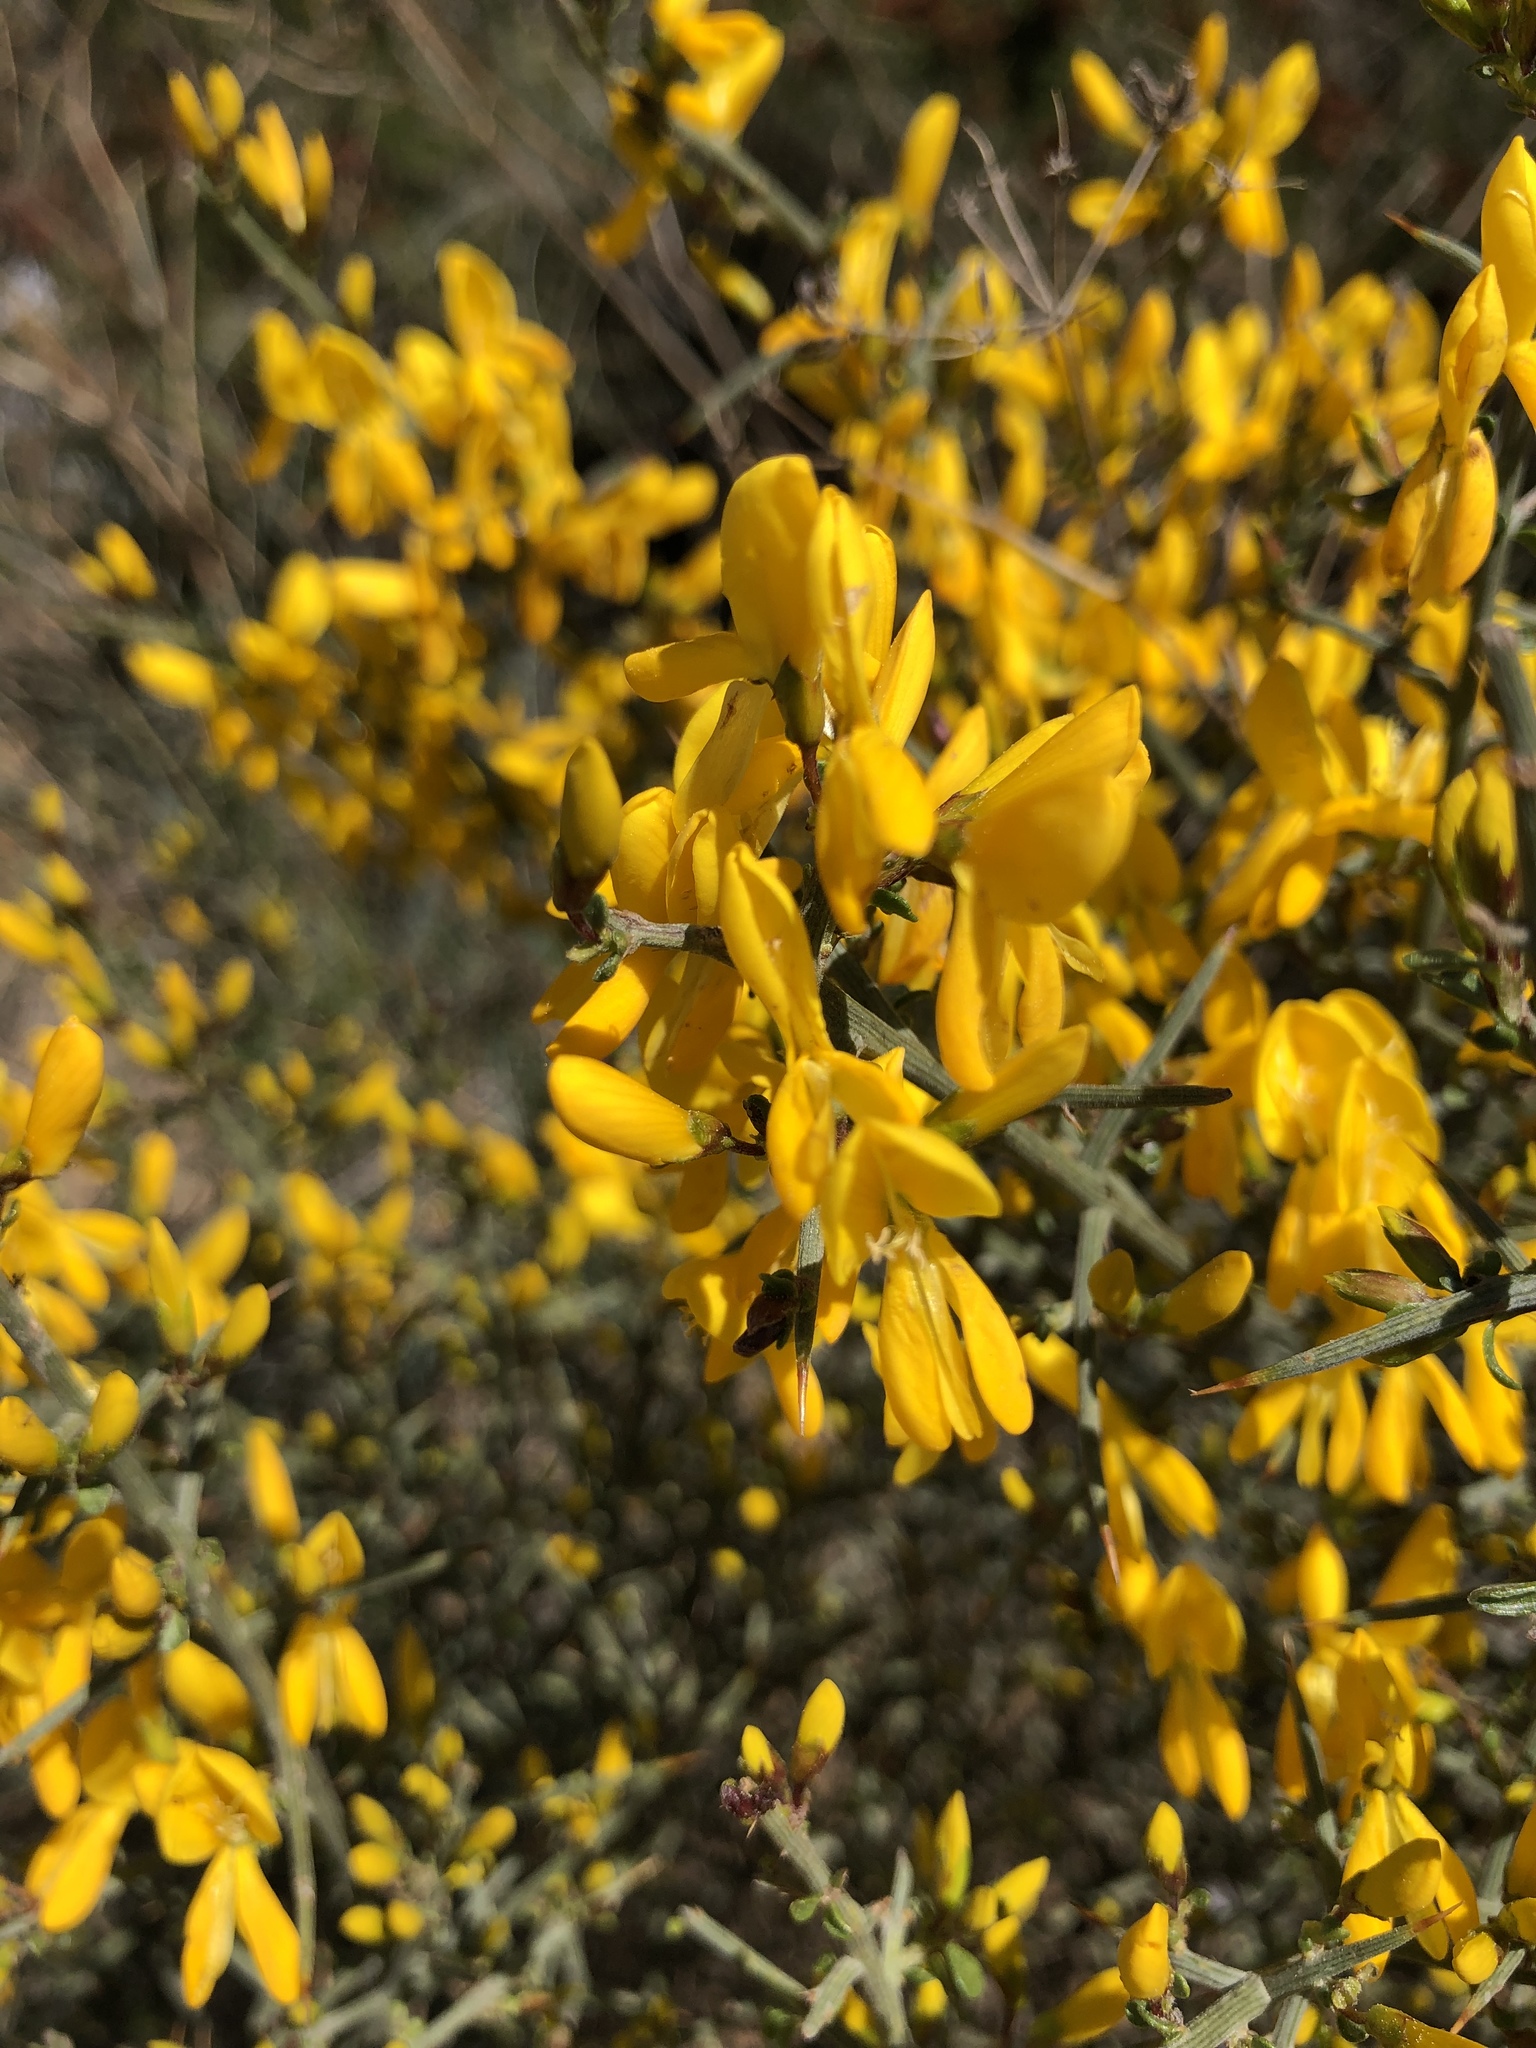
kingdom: Plantae
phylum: Tracheophyta
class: Magnoliopsida
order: Fabales
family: Fabaceae
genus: Genista
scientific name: Genista scorpius
